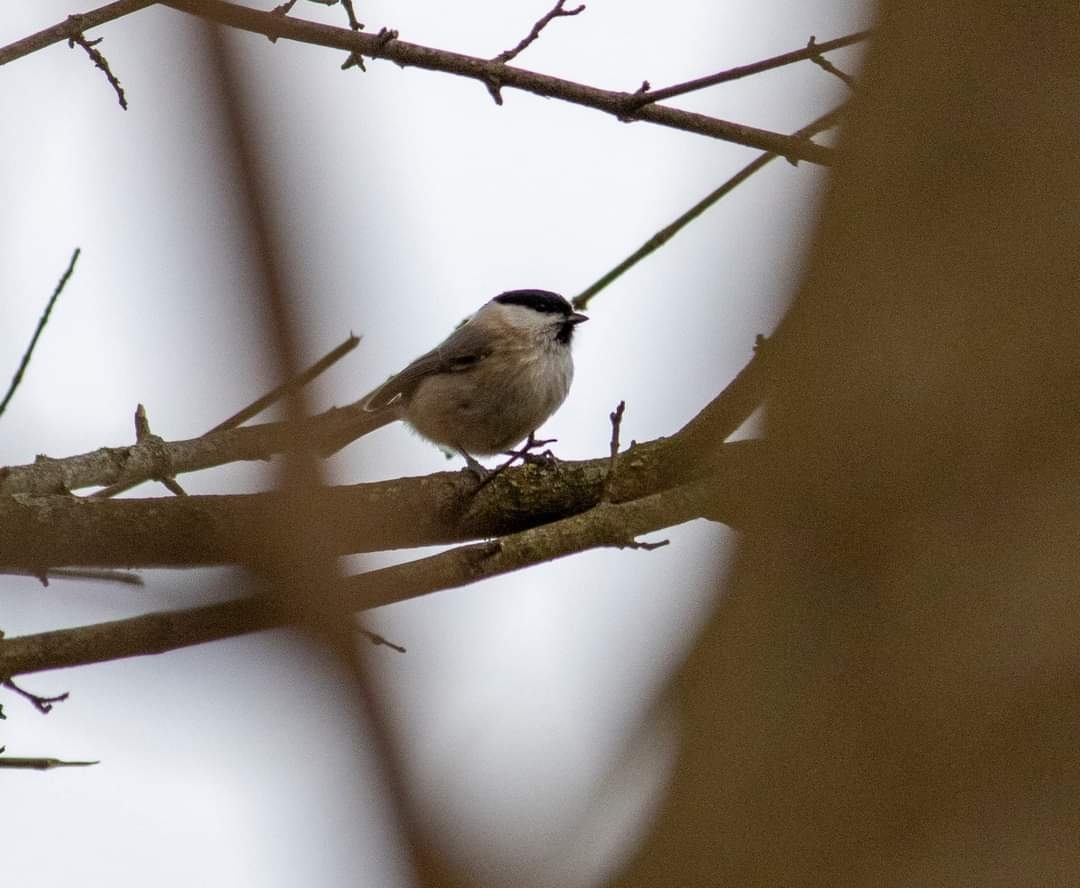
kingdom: Animalia
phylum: Chordata
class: Aves
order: Passeriformes
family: Paridae
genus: Poecile
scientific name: Poecile palustris
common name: Marsh tit
